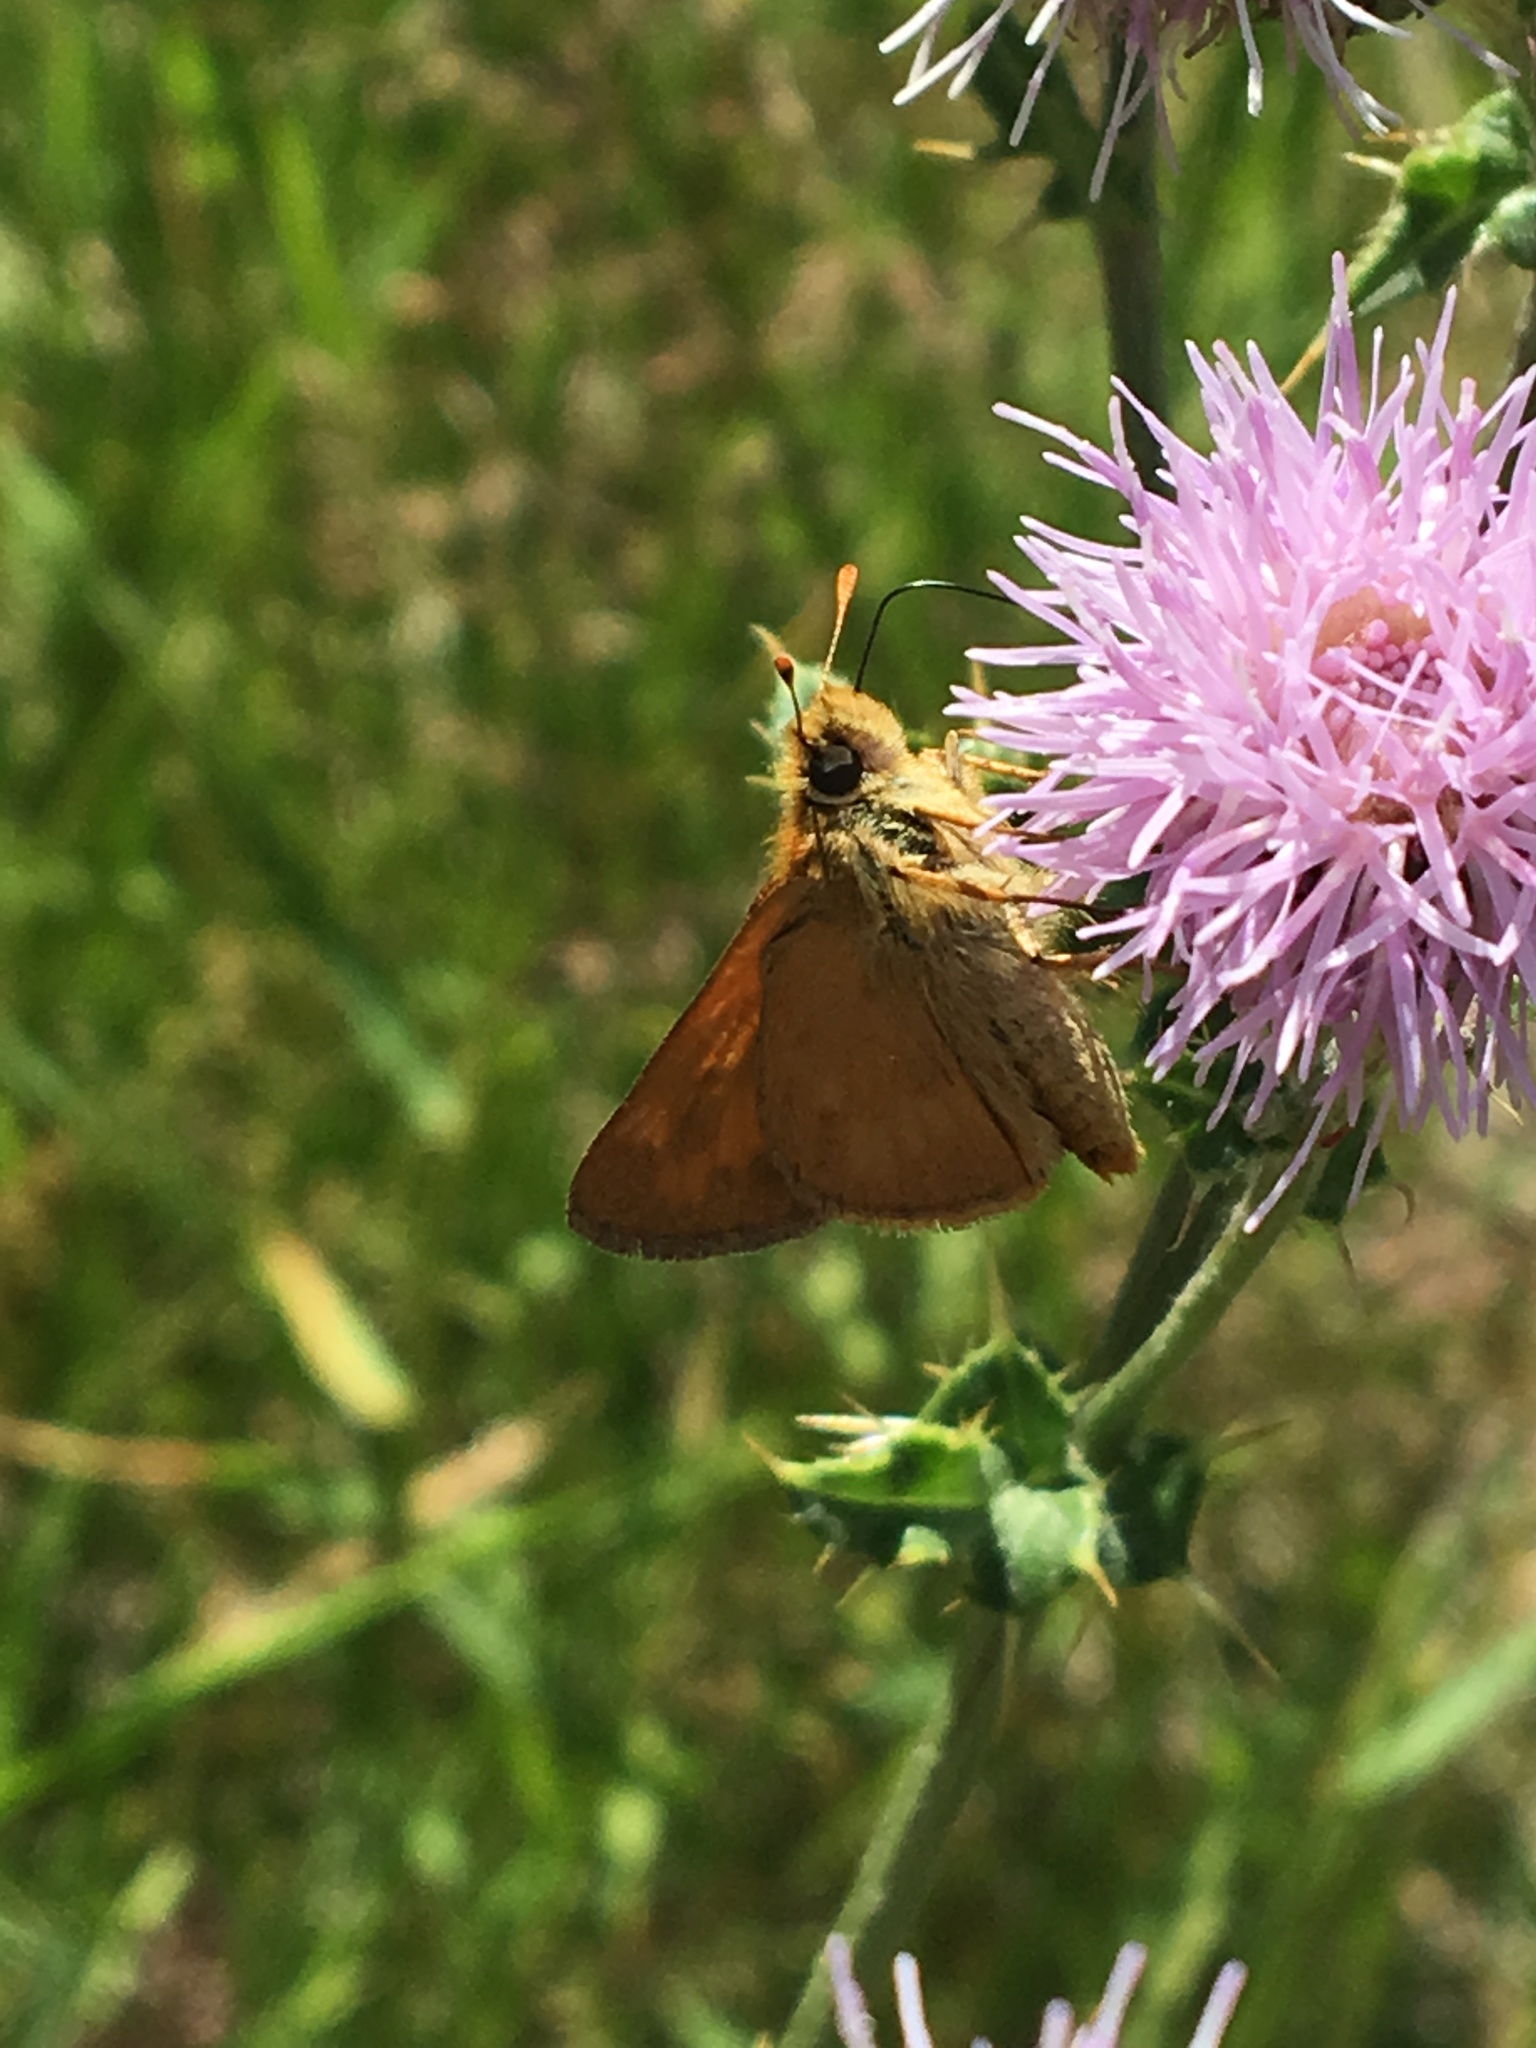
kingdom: Animalia
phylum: Arthropoda
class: Insecta
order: Lepidoptera
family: Hesperiidae
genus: Ochlodes
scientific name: Ochlodes sylvanoides
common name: Woodland skipper
